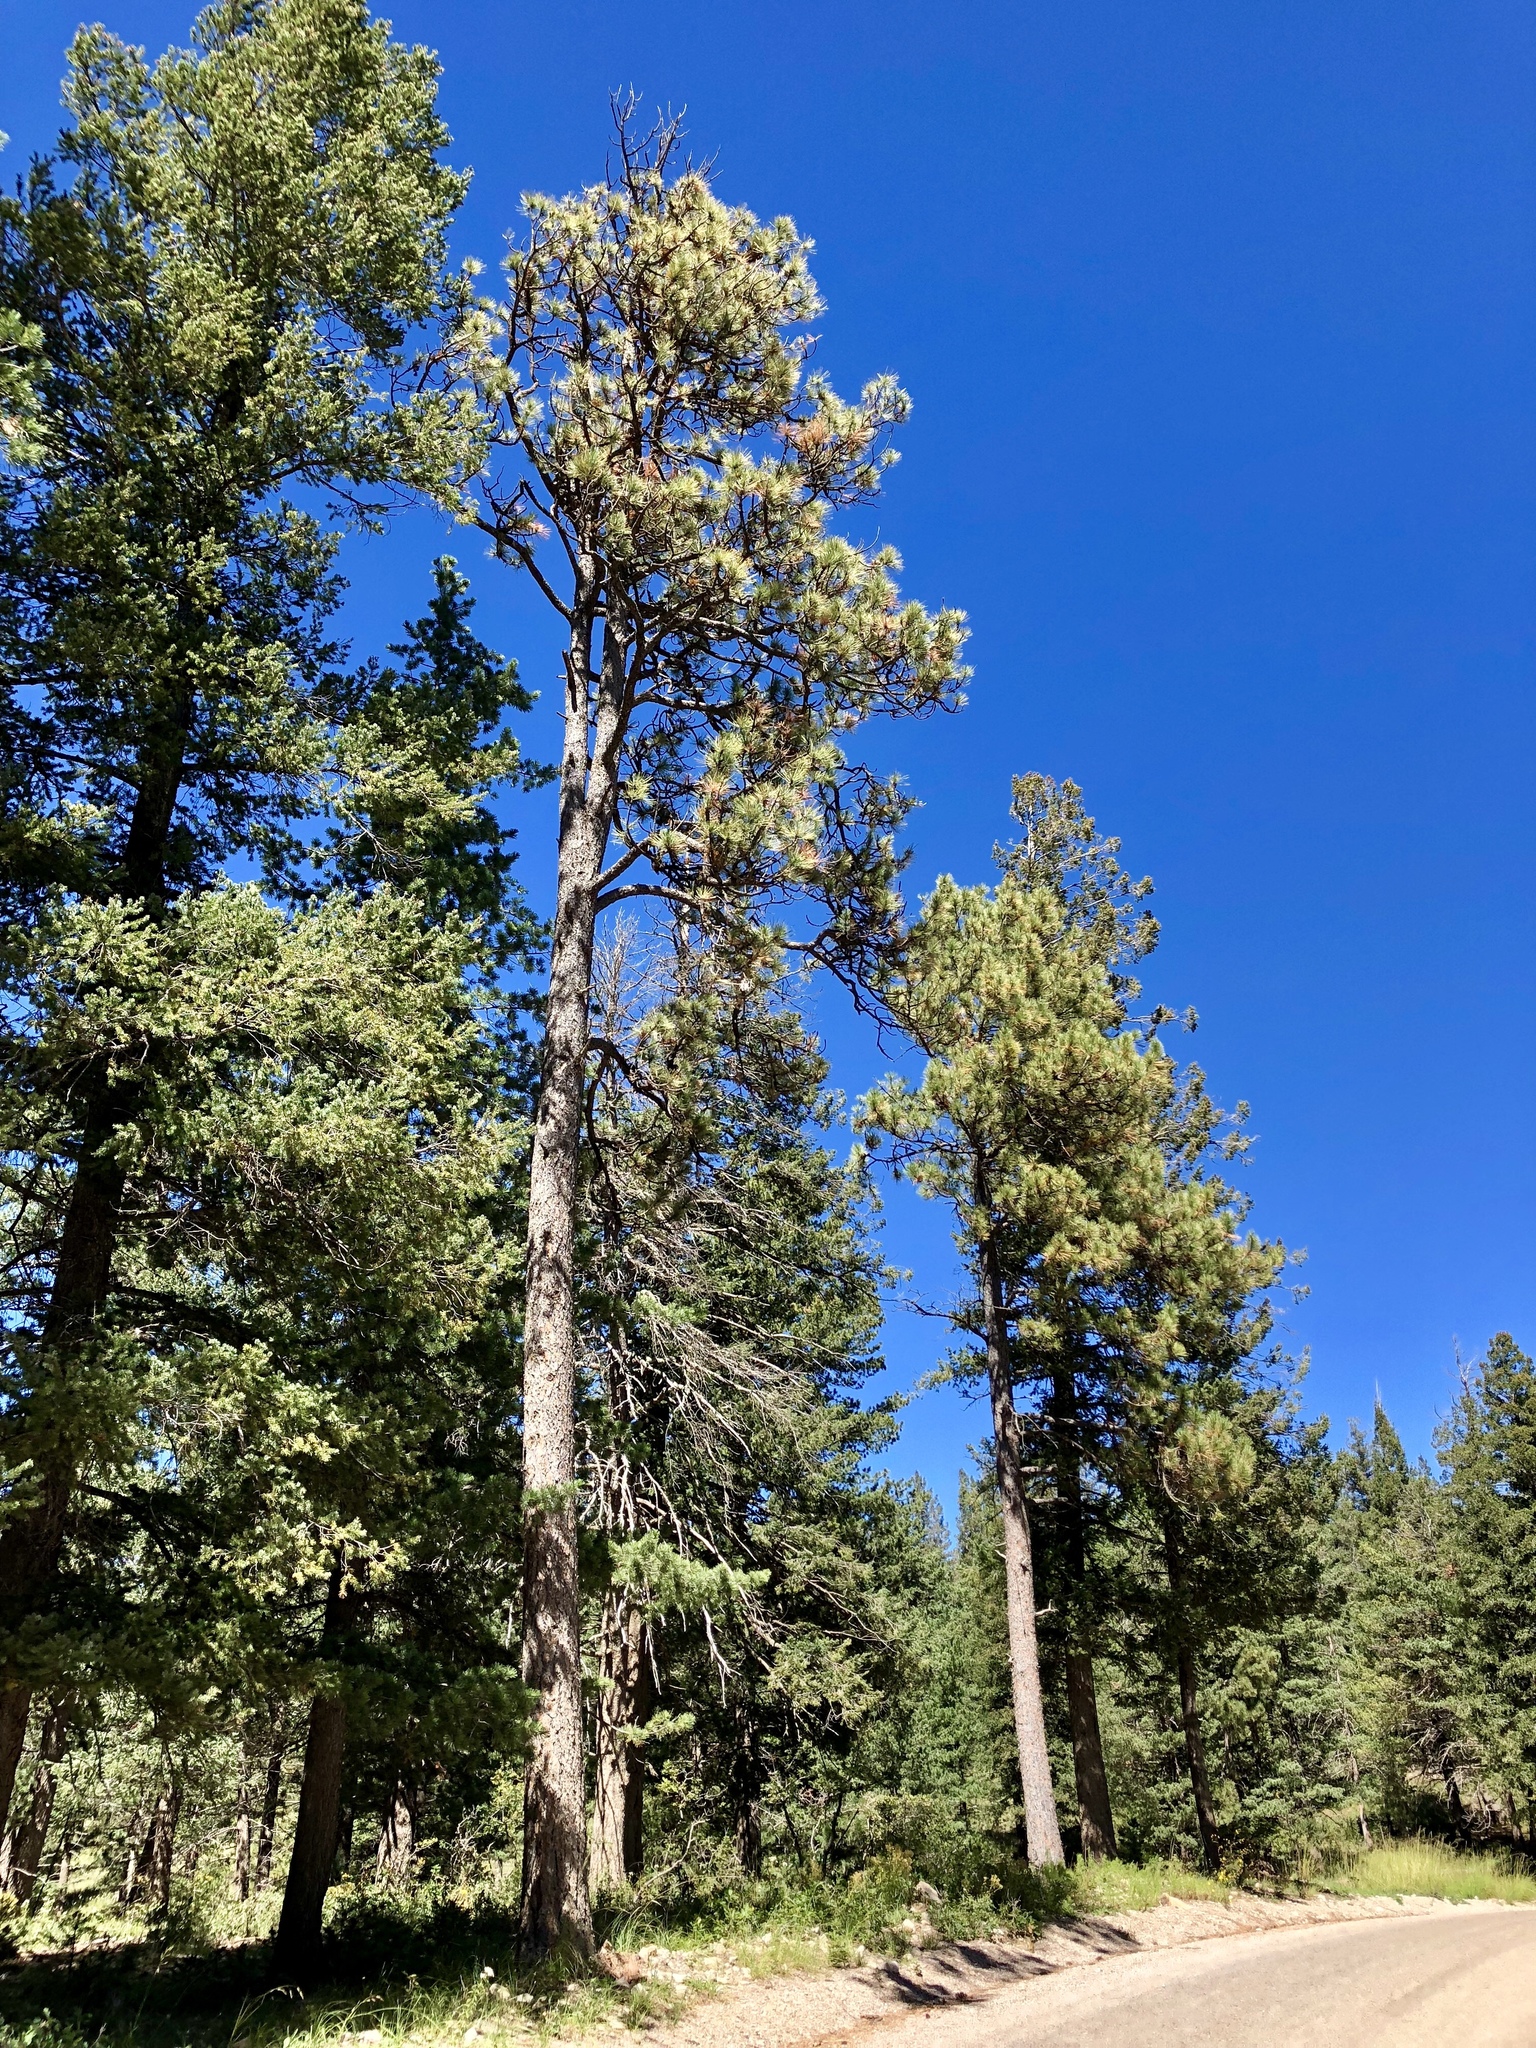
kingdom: Plantae
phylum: Tracheophyta
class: Pinopsida
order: Pinales
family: Pinaceae
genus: Pinus
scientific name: Pinus ponderosa
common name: Western yellow-pine
